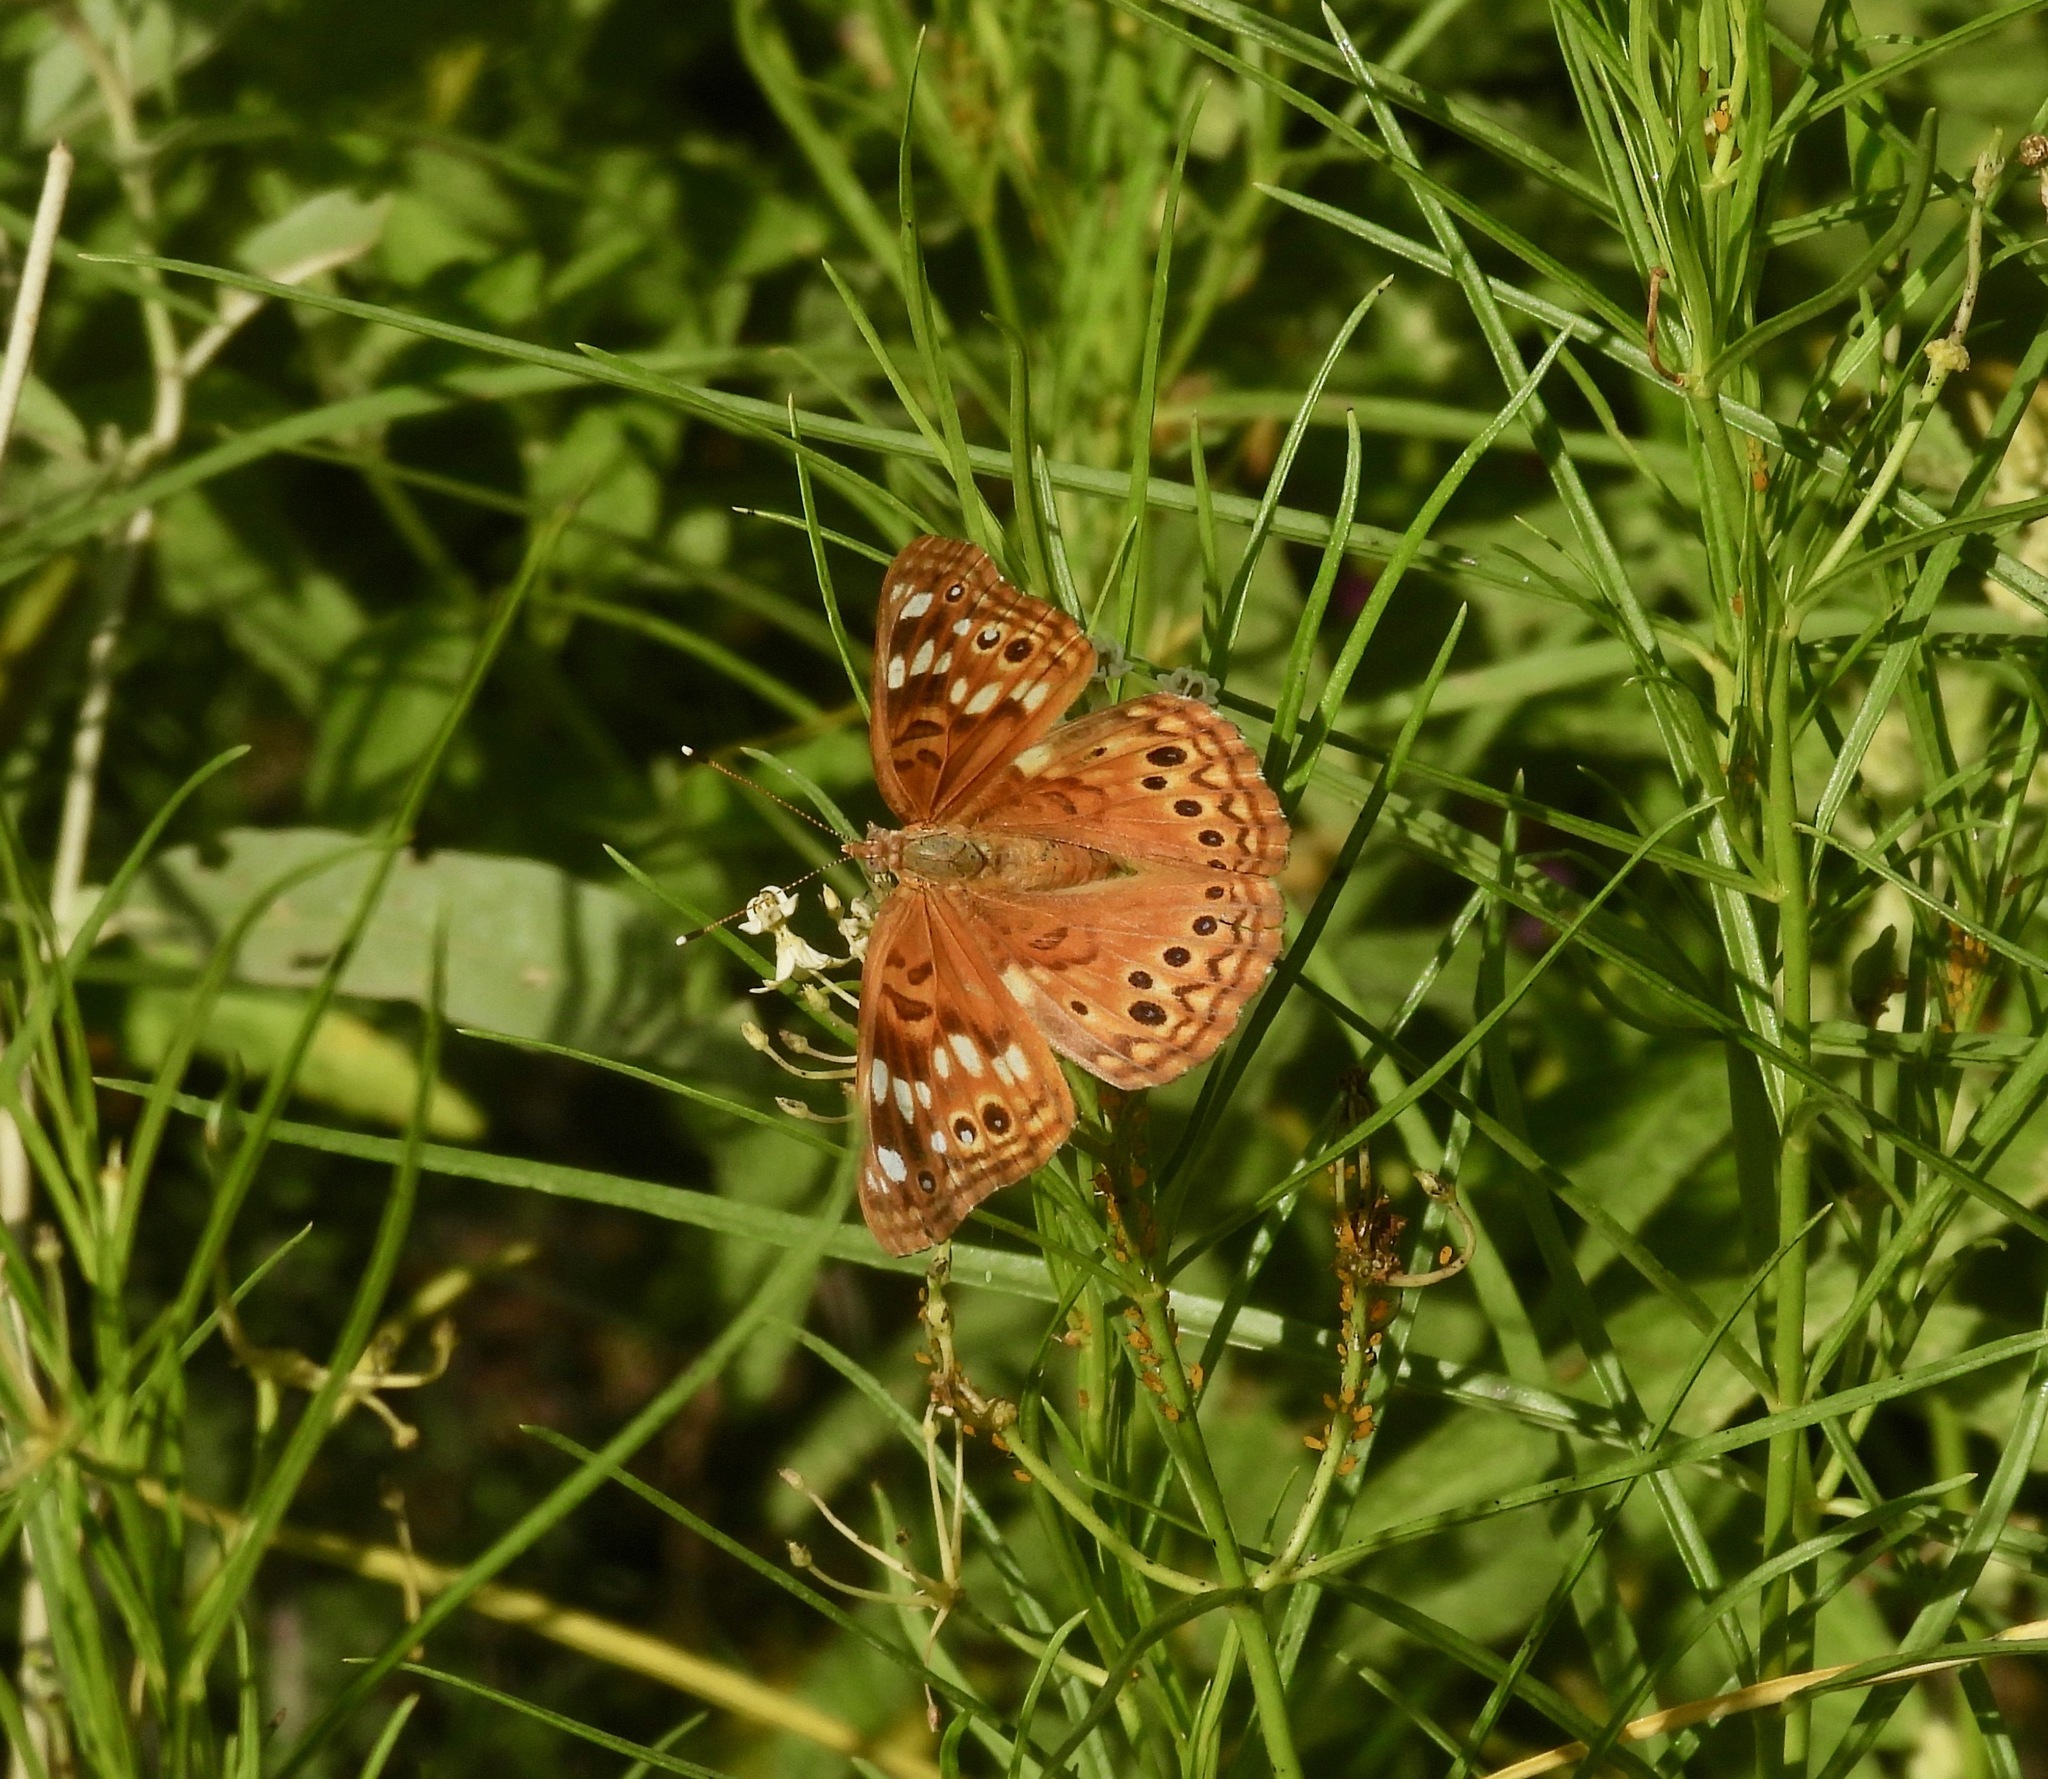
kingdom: Animalia
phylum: Arthropoda
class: Insecta
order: Lepidoptera
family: Nymphalidae
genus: Asterocampa
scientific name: Asterocampa celtis
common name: Hackberry emperor
